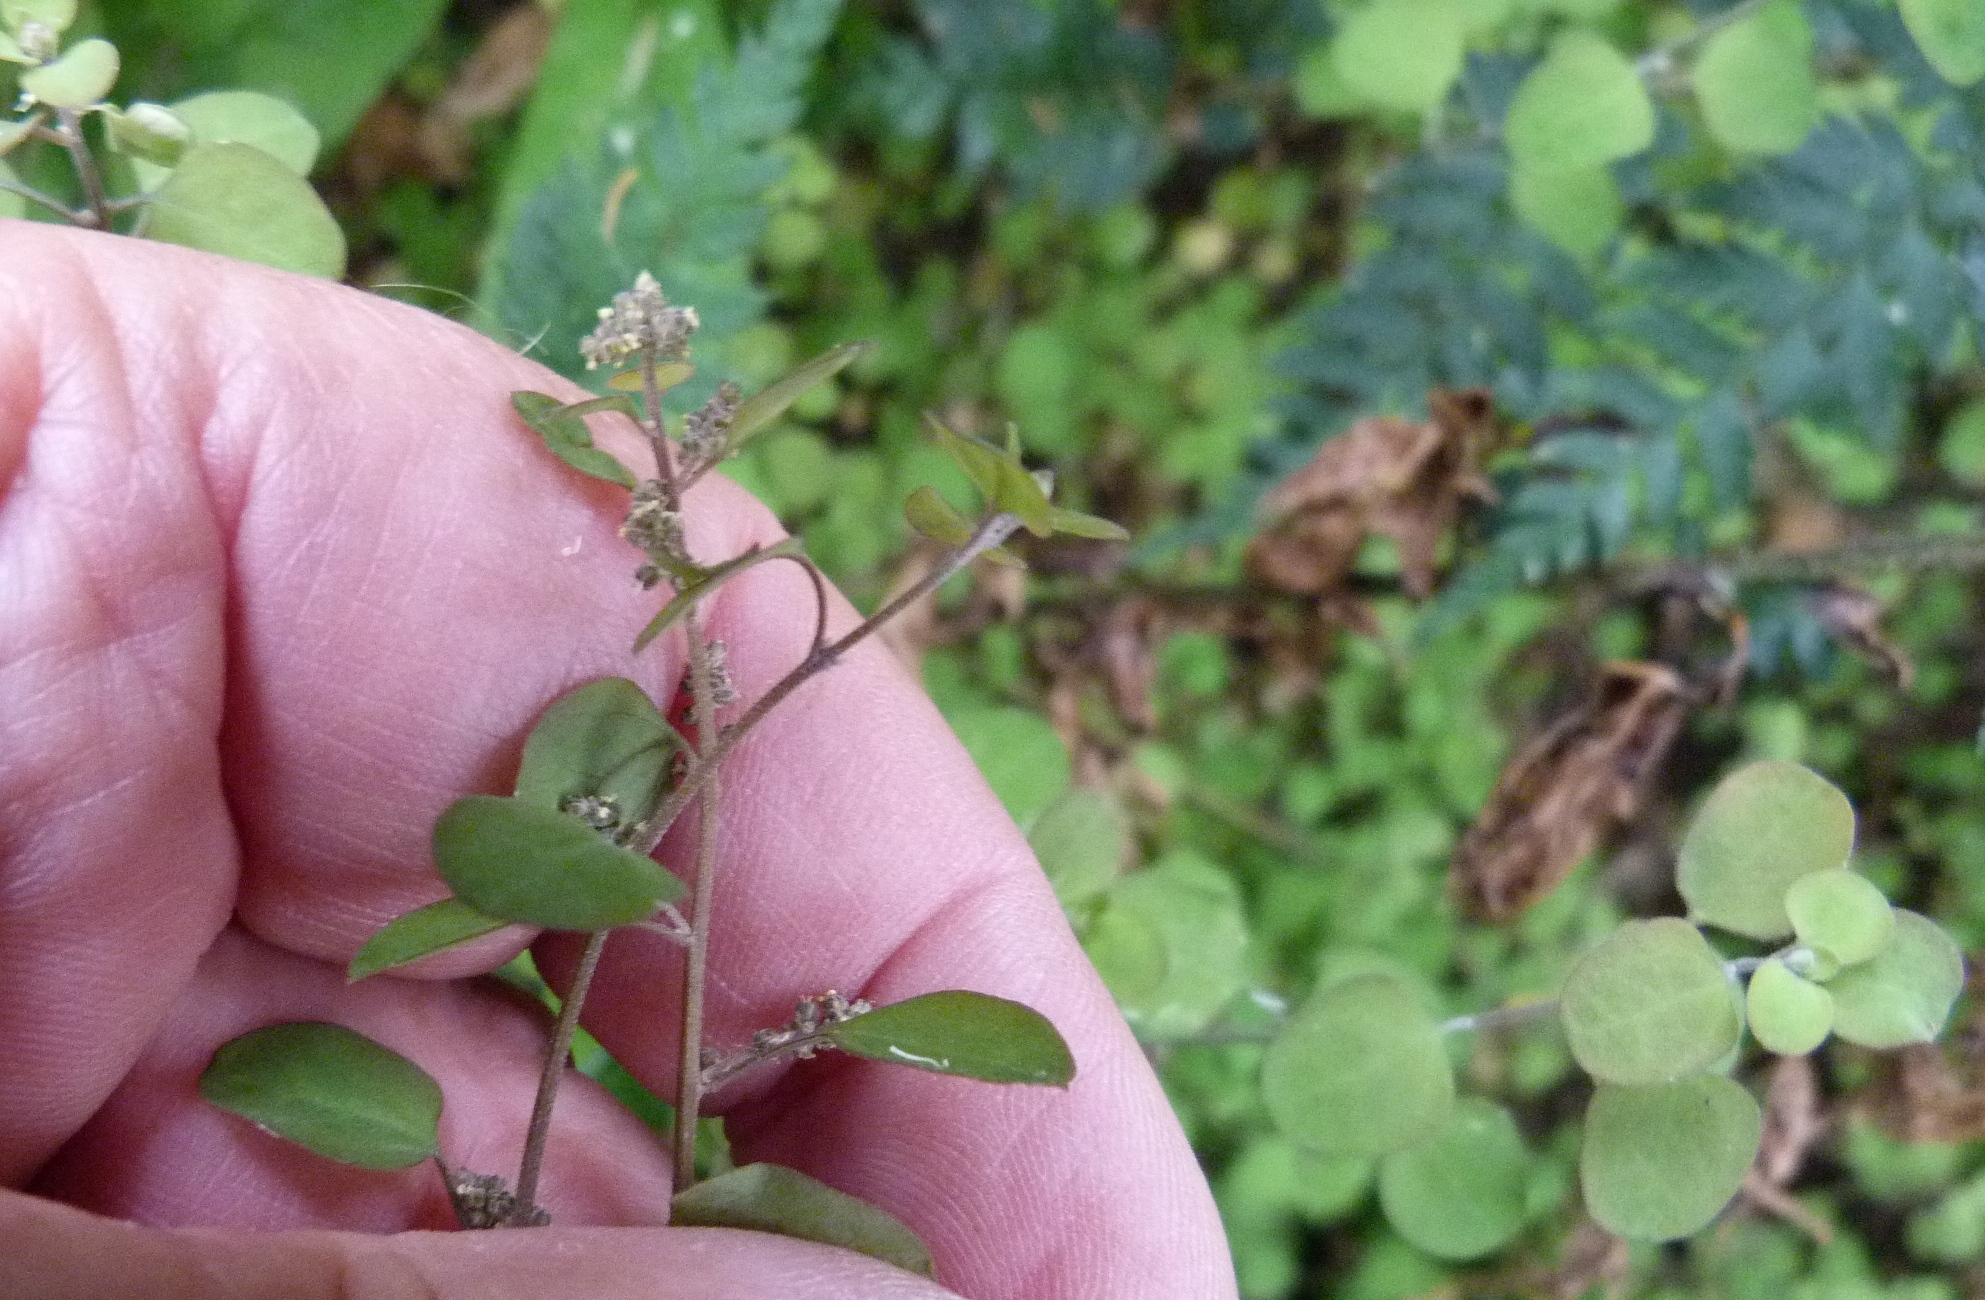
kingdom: Plantae
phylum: Tracheophyta
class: Magnoliopsida
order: Caryophyllales
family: Amaranthaceae
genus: Chenopodium
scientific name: Chenopodium allanii
